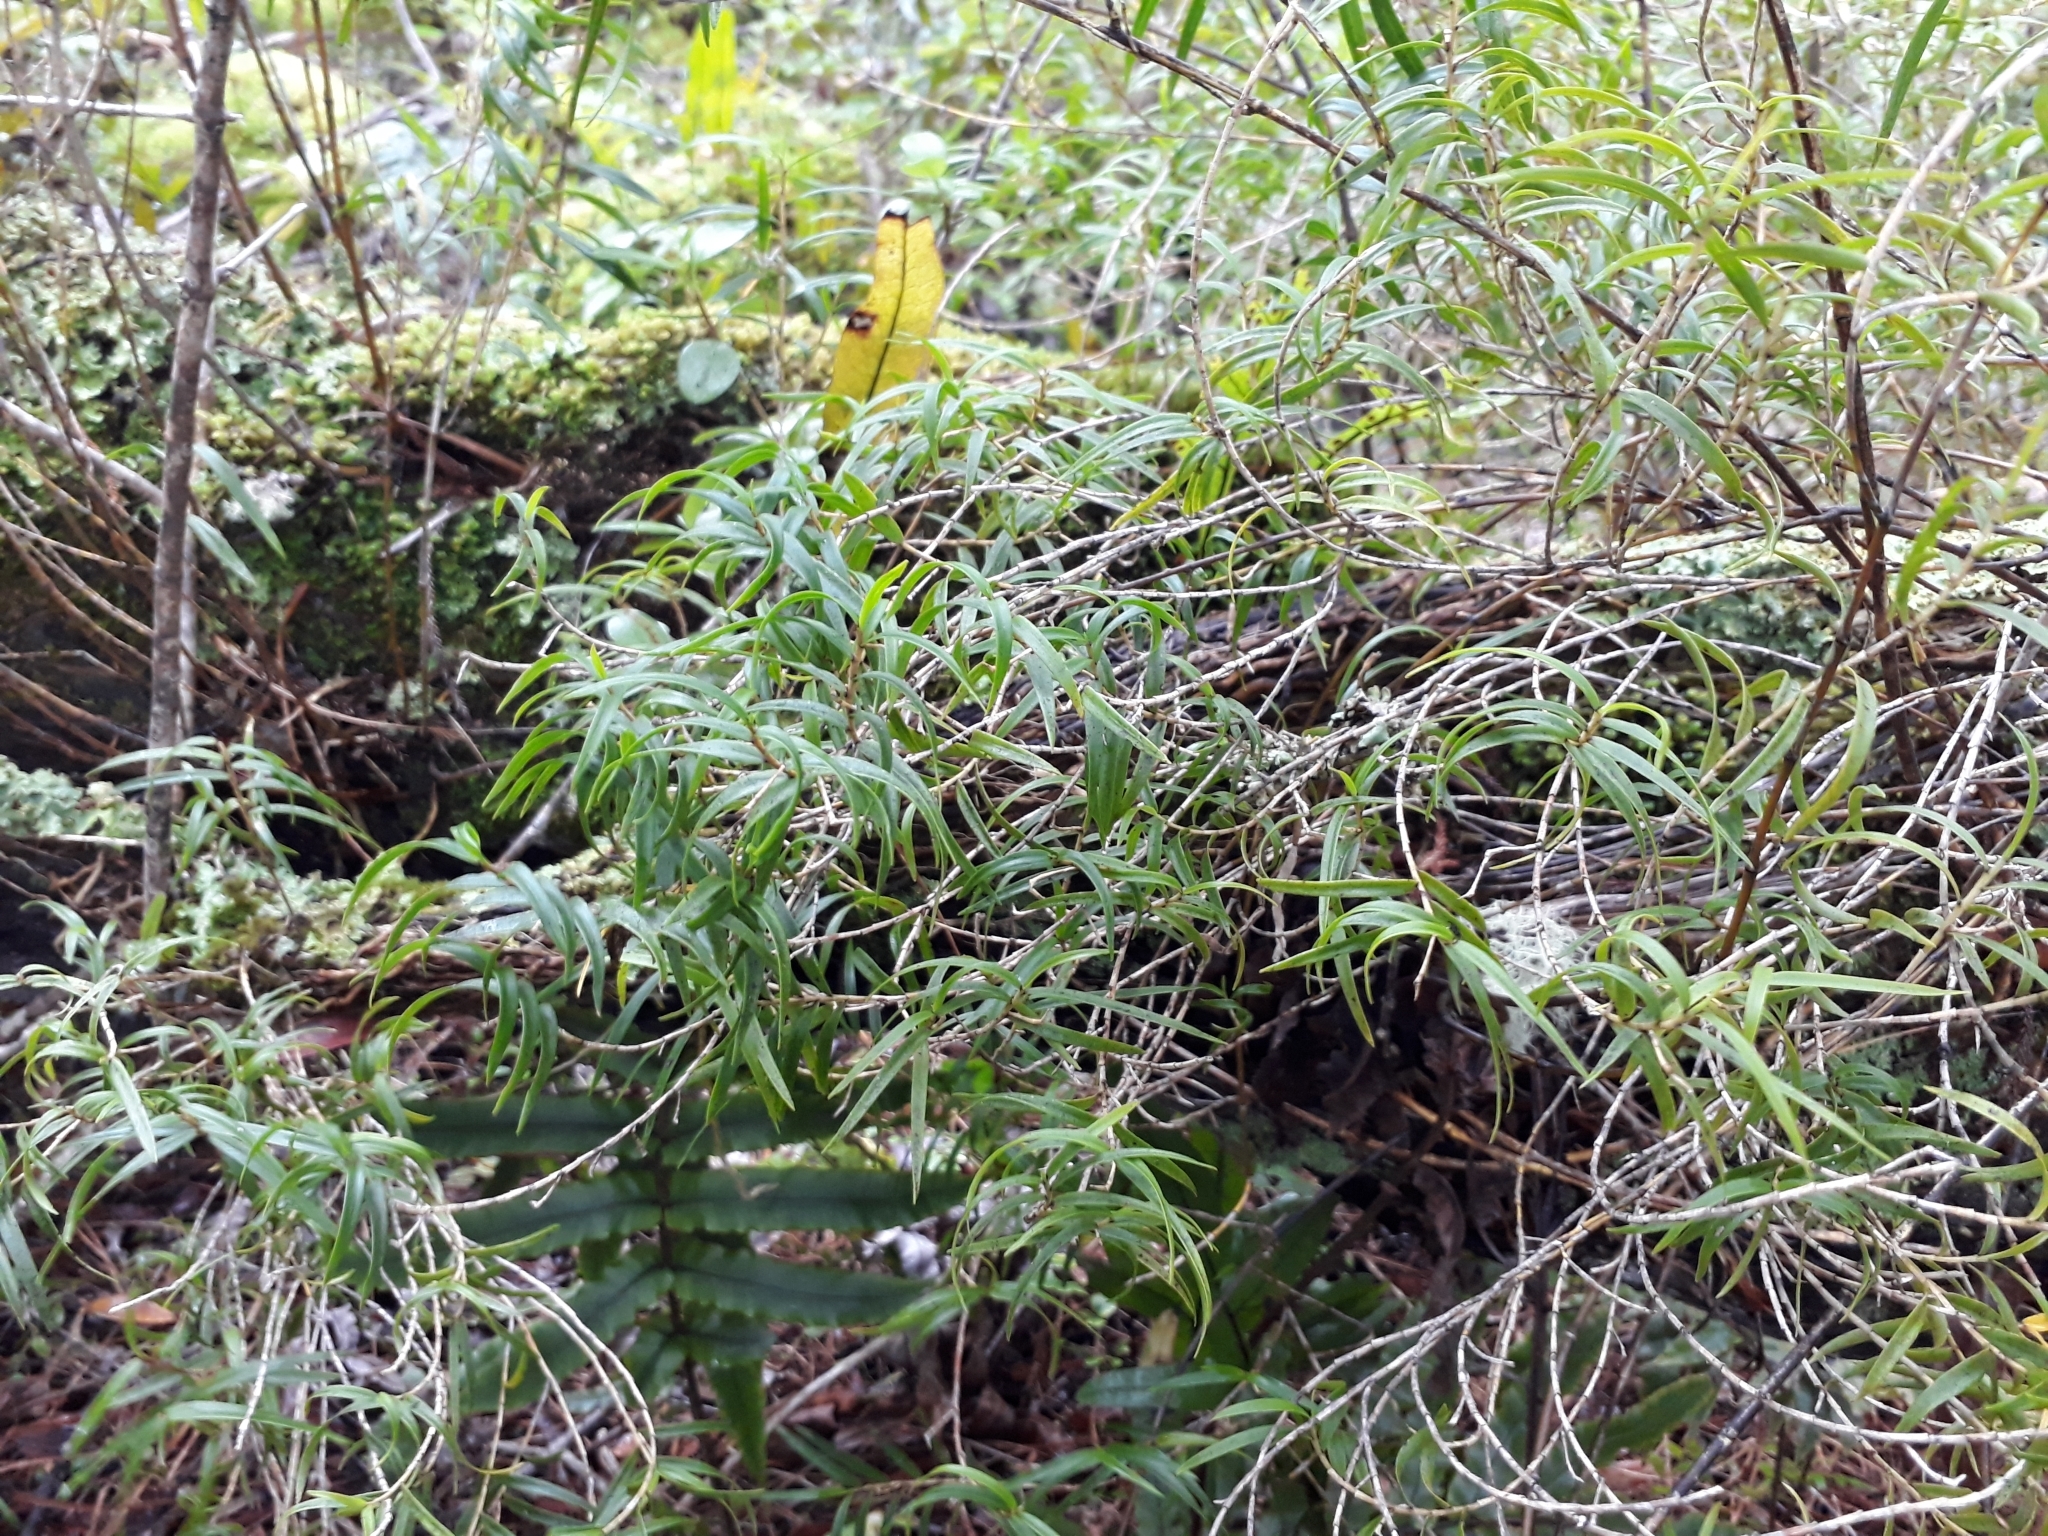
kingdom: Plantae
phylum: Tracheophyta
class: Liliopsida
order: Asparagales
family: Orchidaceae
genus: Dendrobium
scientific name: Dendrobium cunninghamii
